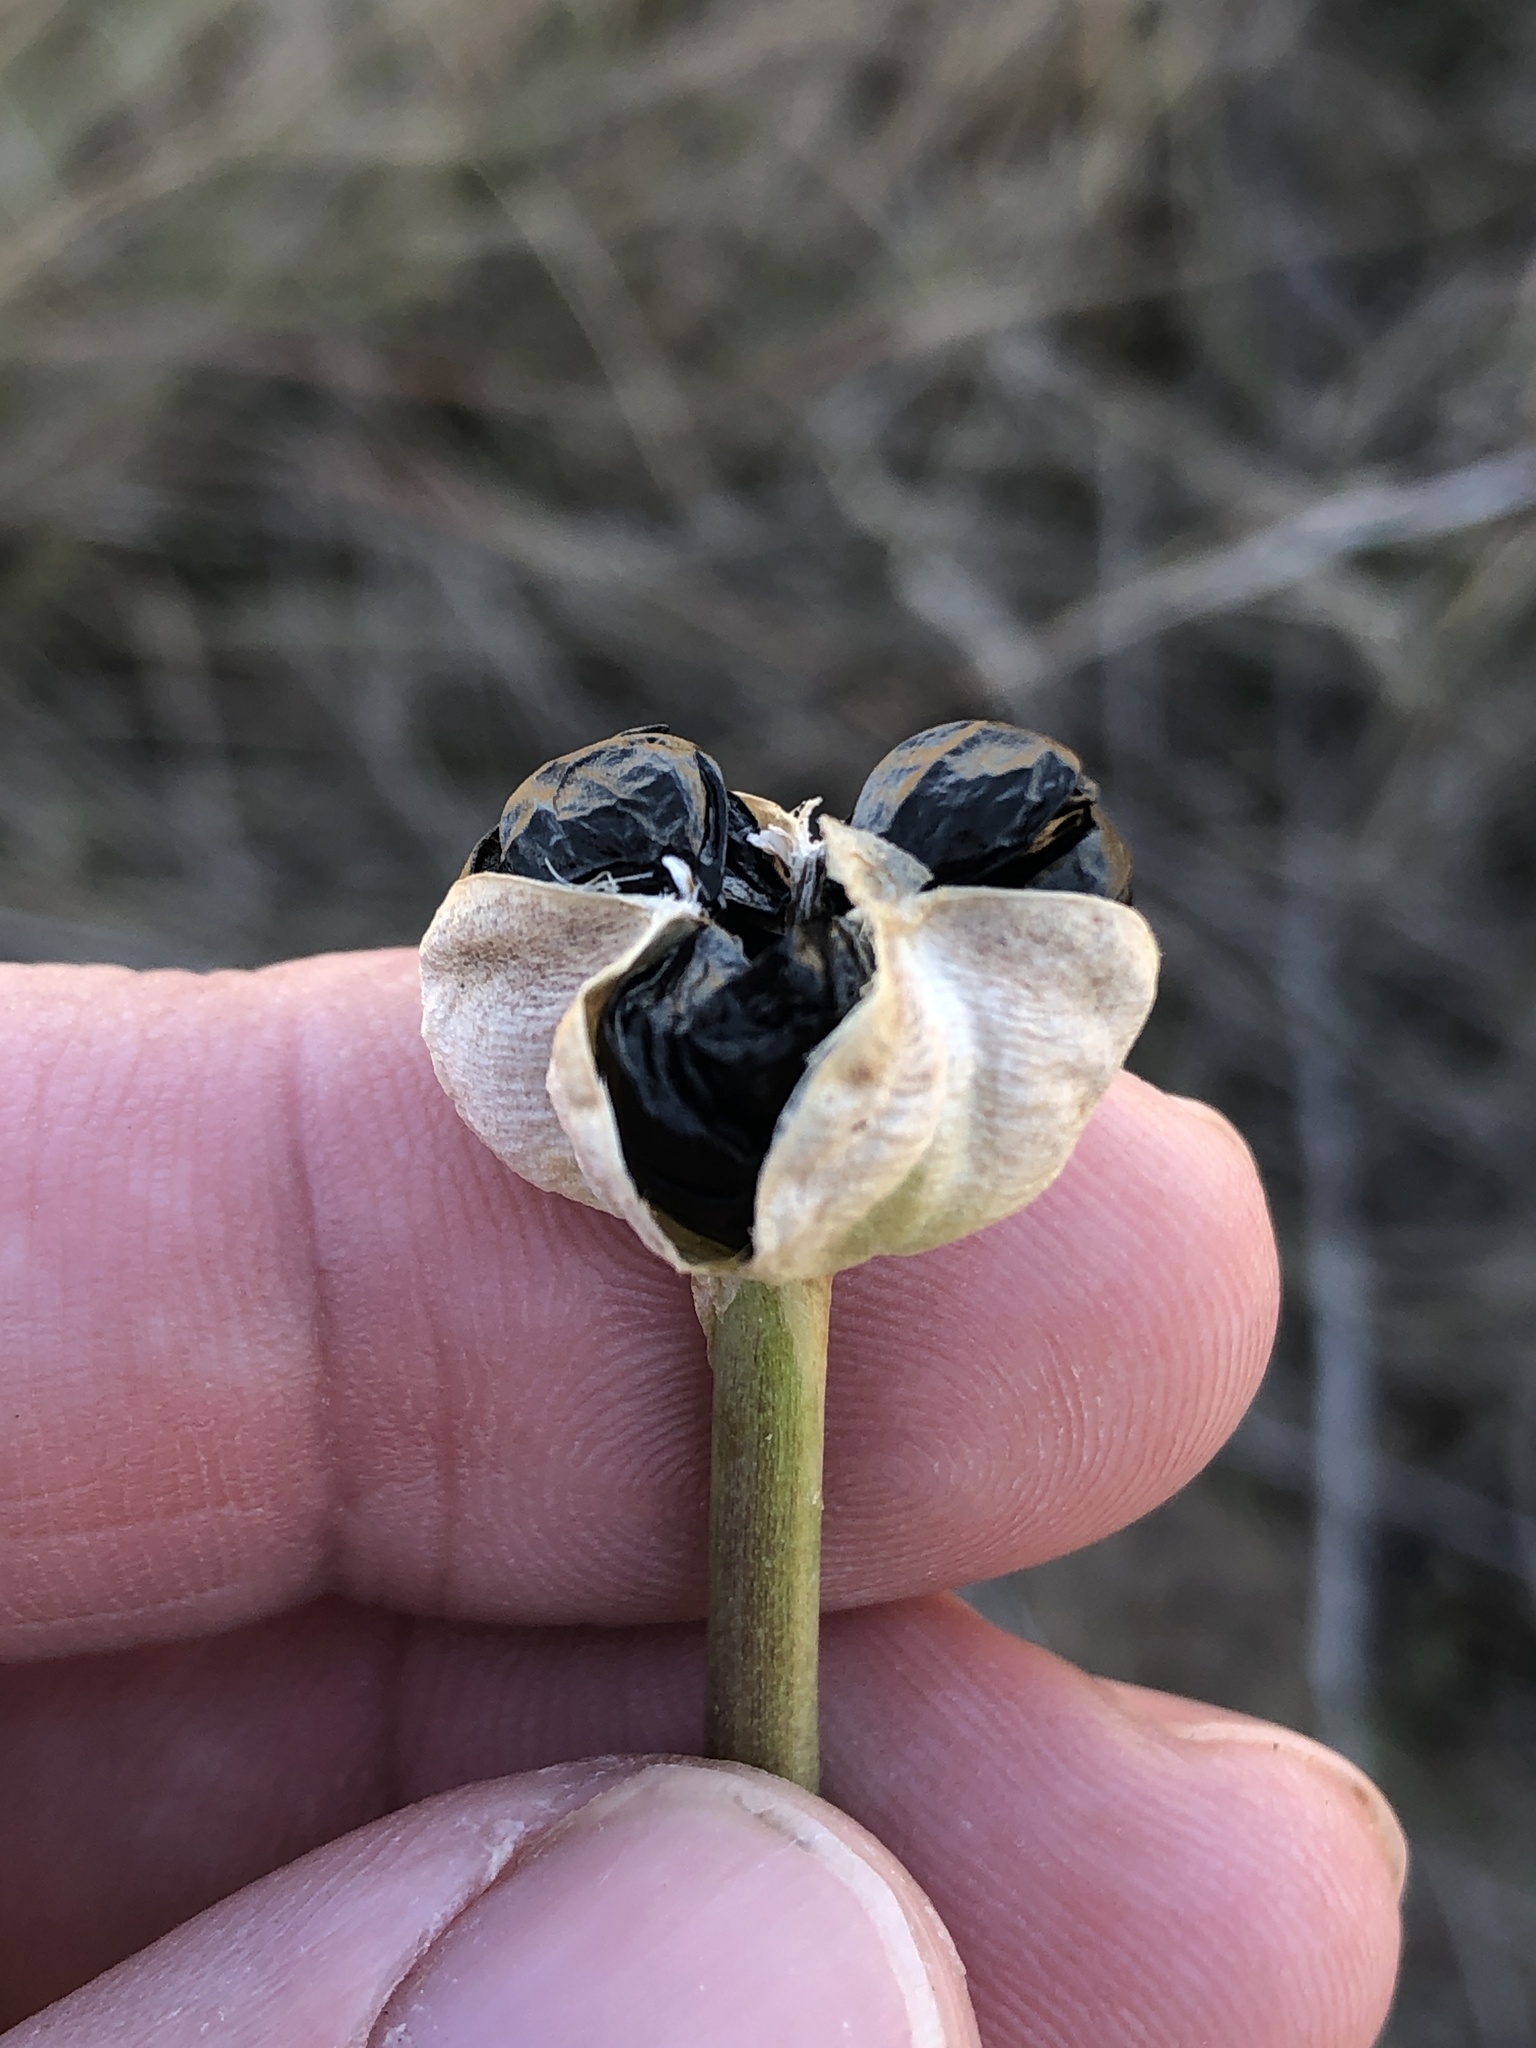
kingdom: Plantae
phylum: Tracheophyta
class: Liliopsida
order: Asparagales
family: Amaryllidaceae
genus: Zephyranthes
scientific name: Zephyranthes
